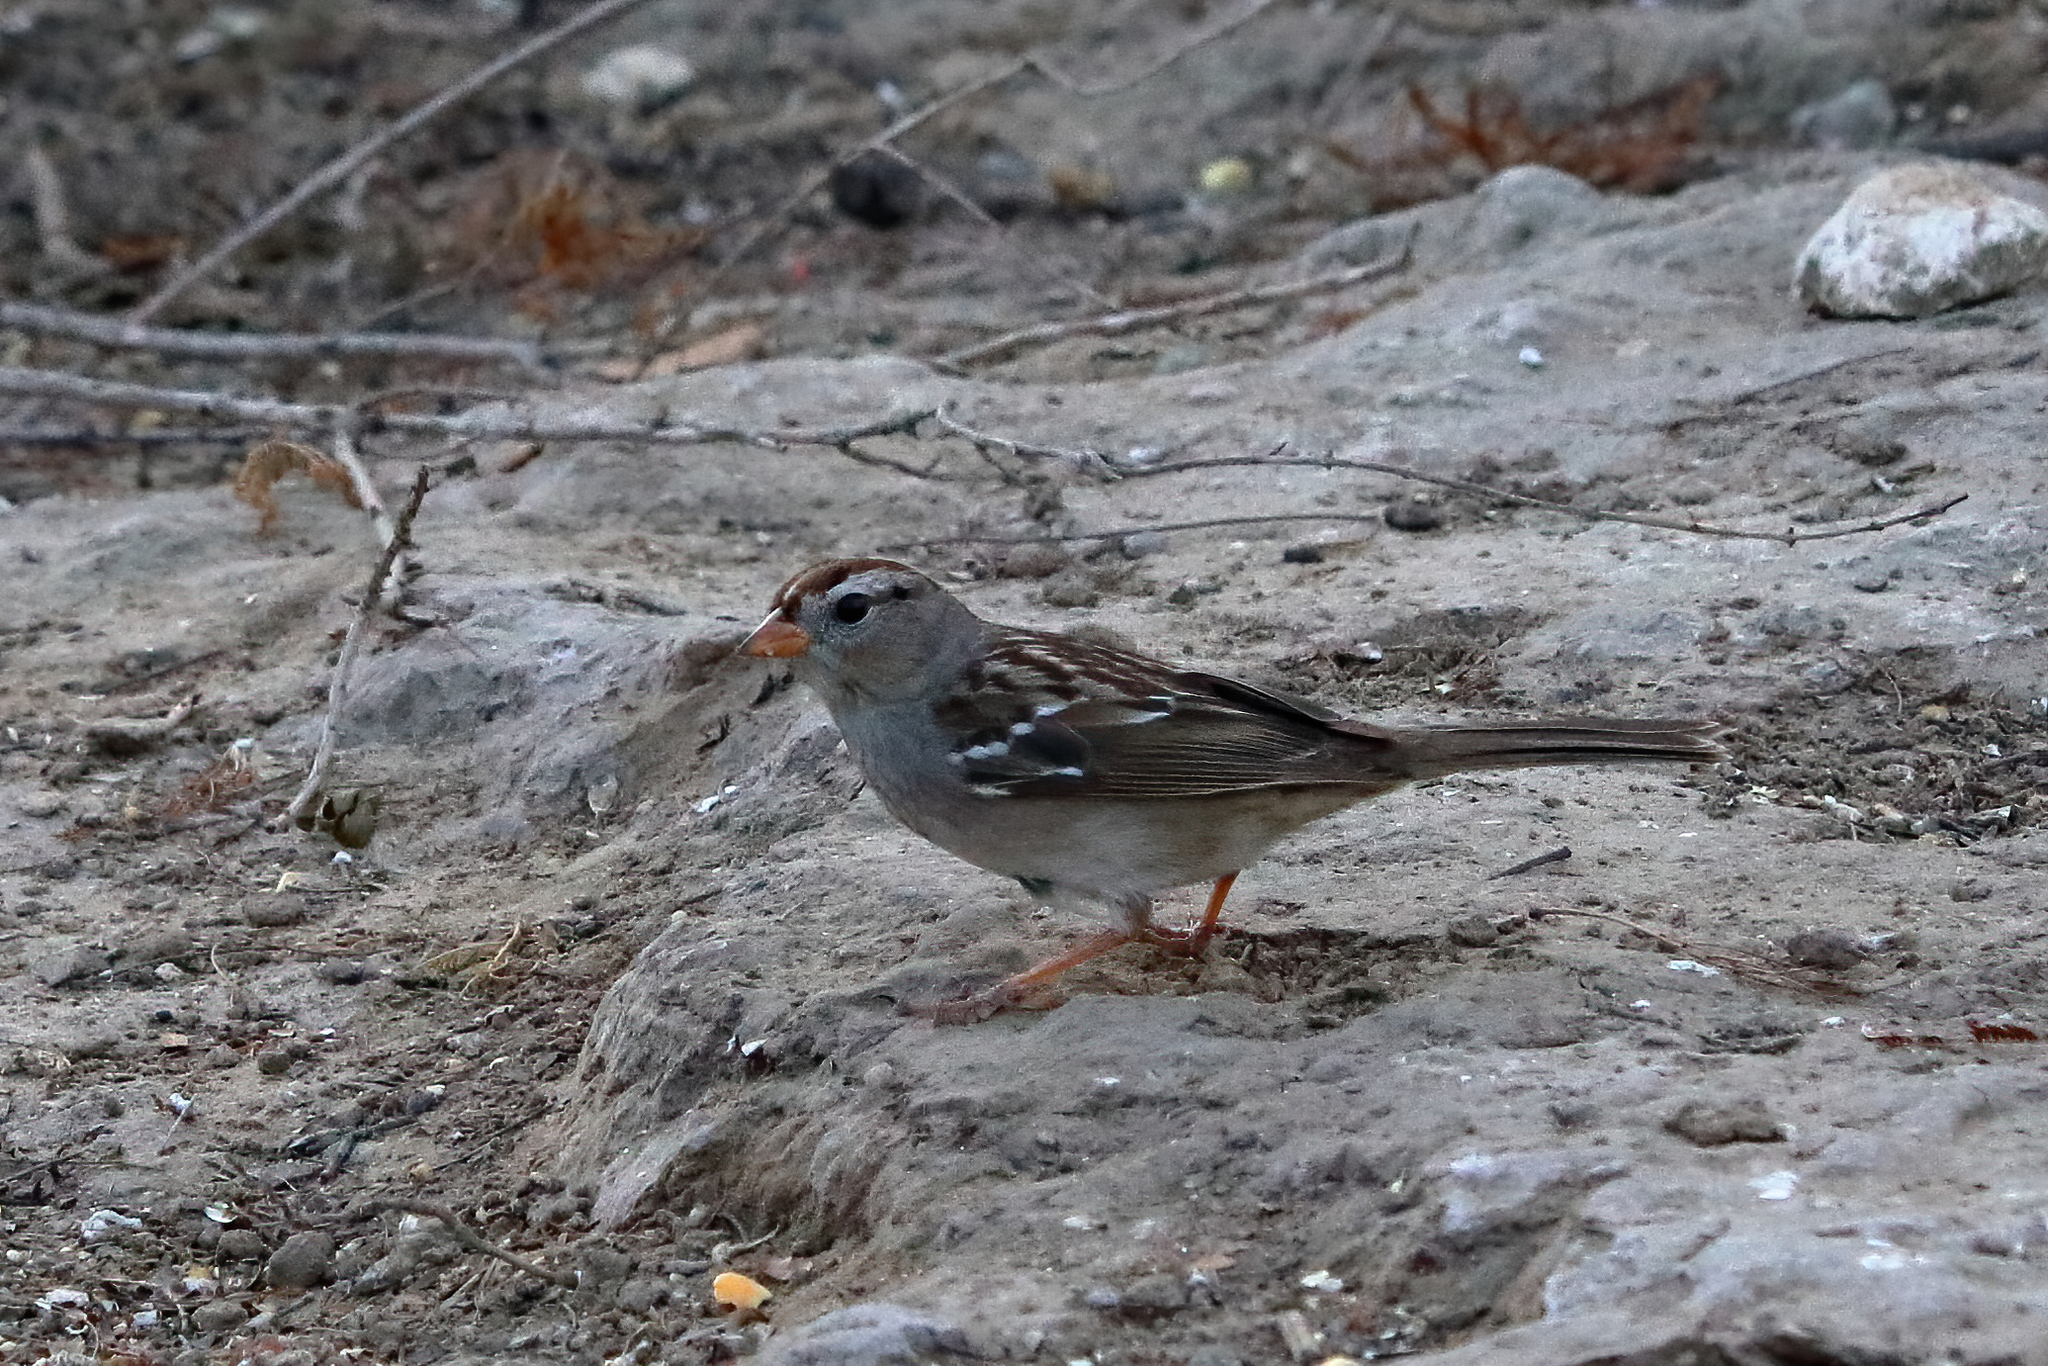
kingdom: Animalia
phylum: Chordata
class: Aves
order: Passeriformes
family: Passerellidae
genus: Zonotrichia
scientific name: Zonotrichia leucophrys
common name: White-crowned sparrow
